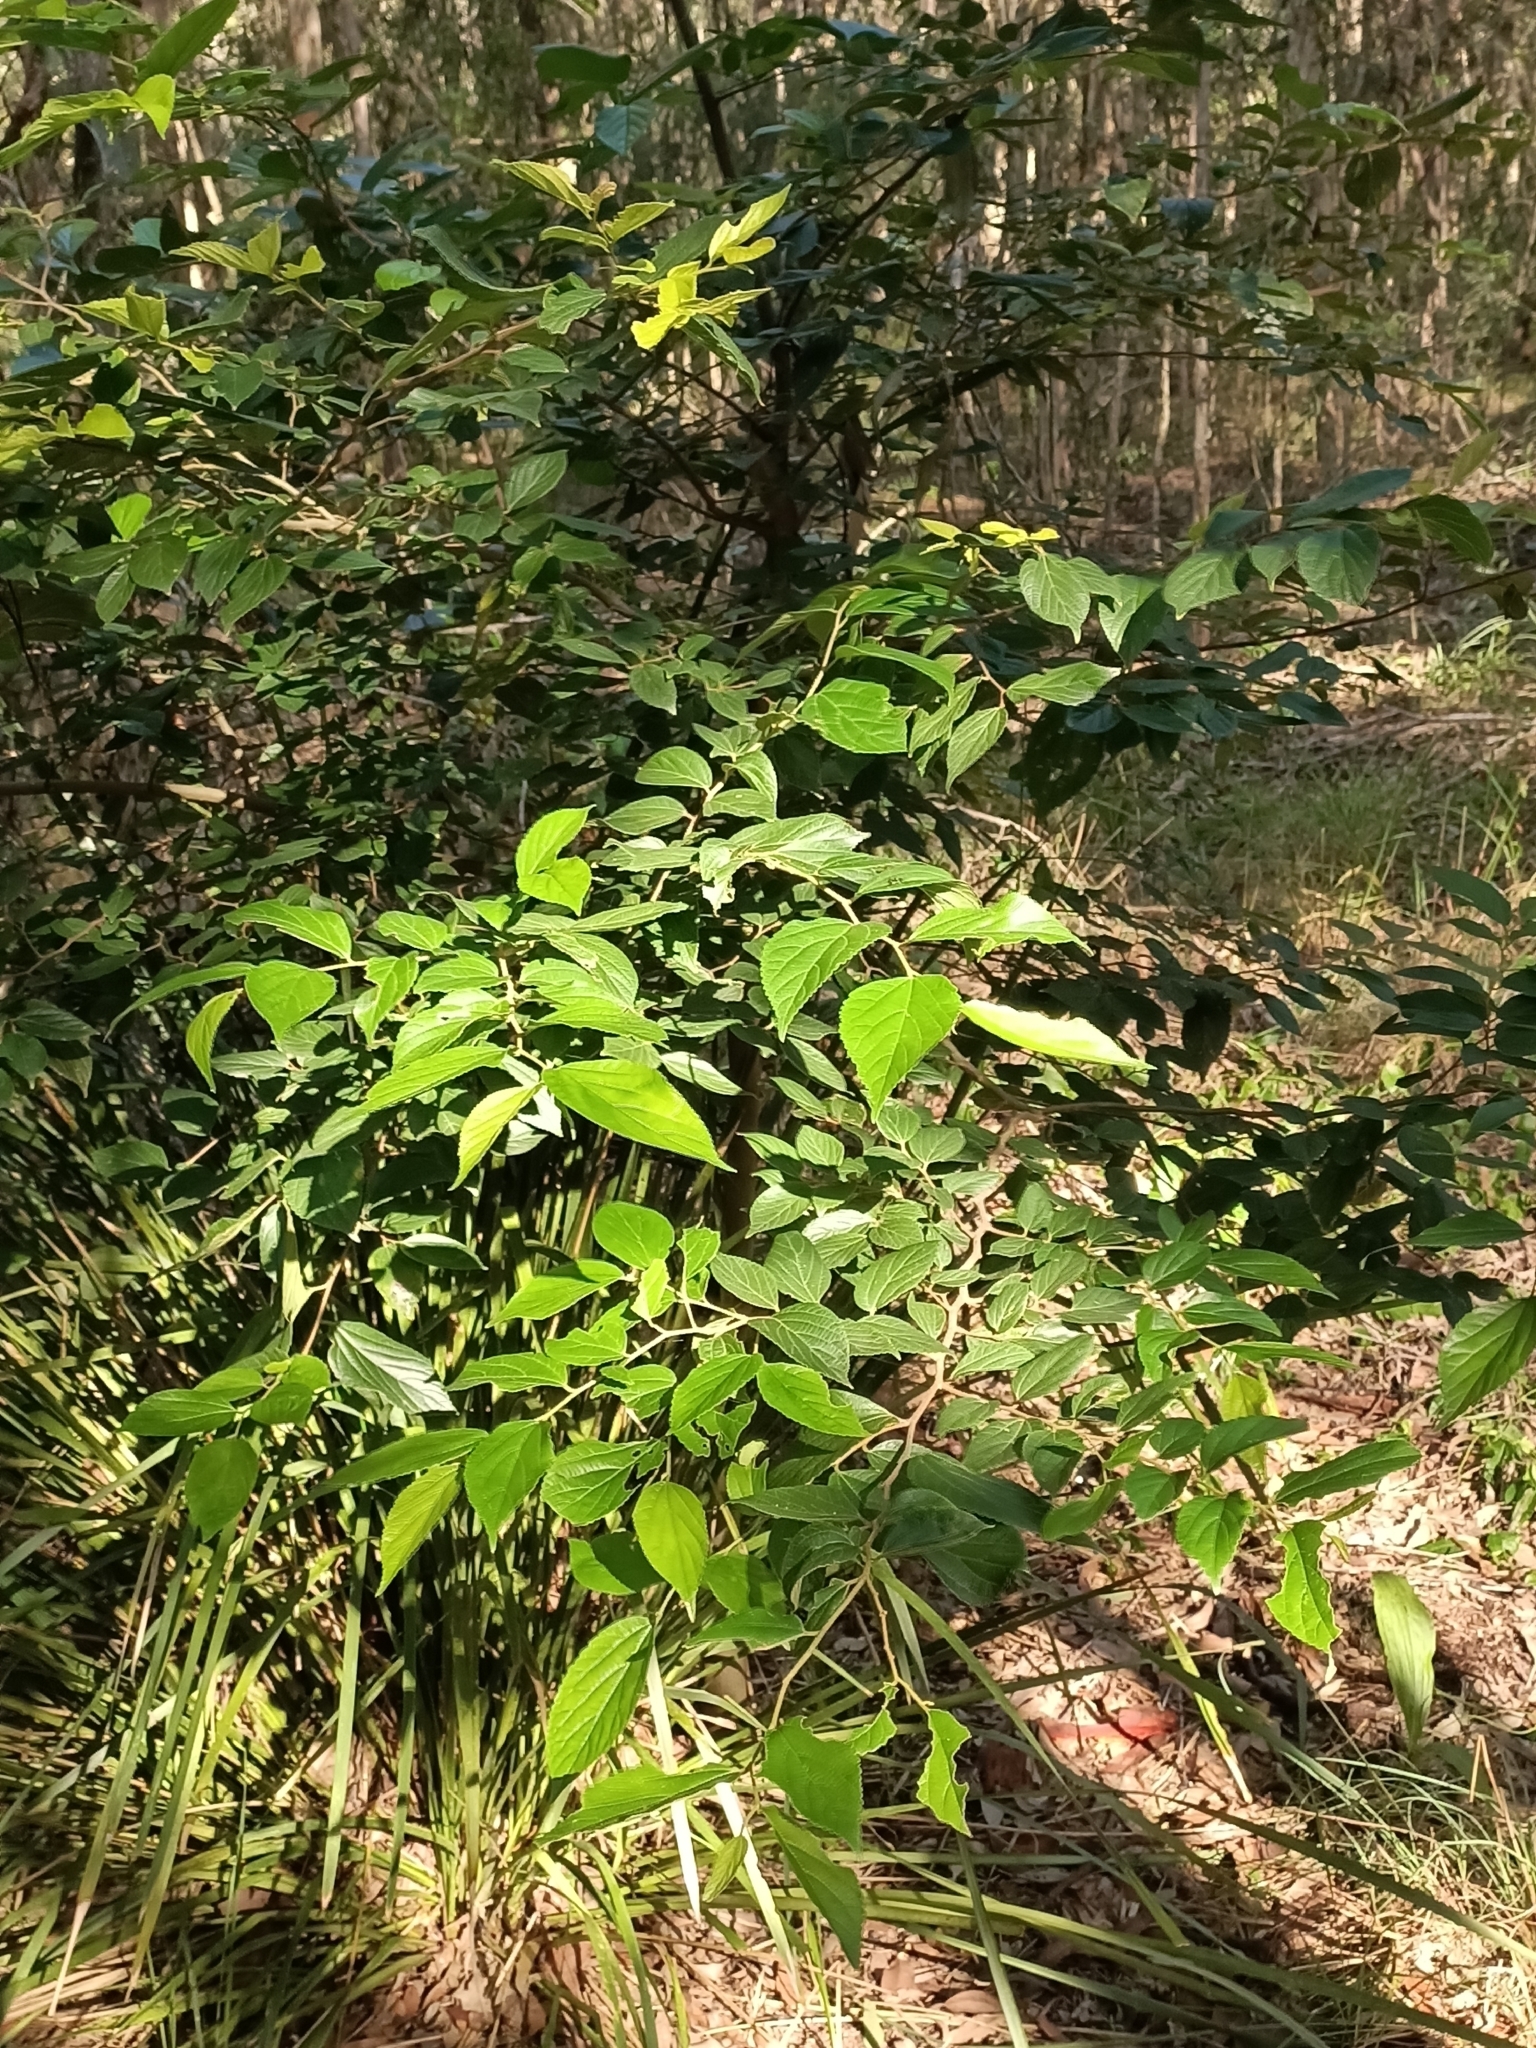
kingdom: Plantae
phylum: Tracheophyta
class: Magnoliopsida
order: Rosales
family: Cannabaceae
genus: Celtis
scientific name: Celtis sinensis
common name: Chinese hackberry
